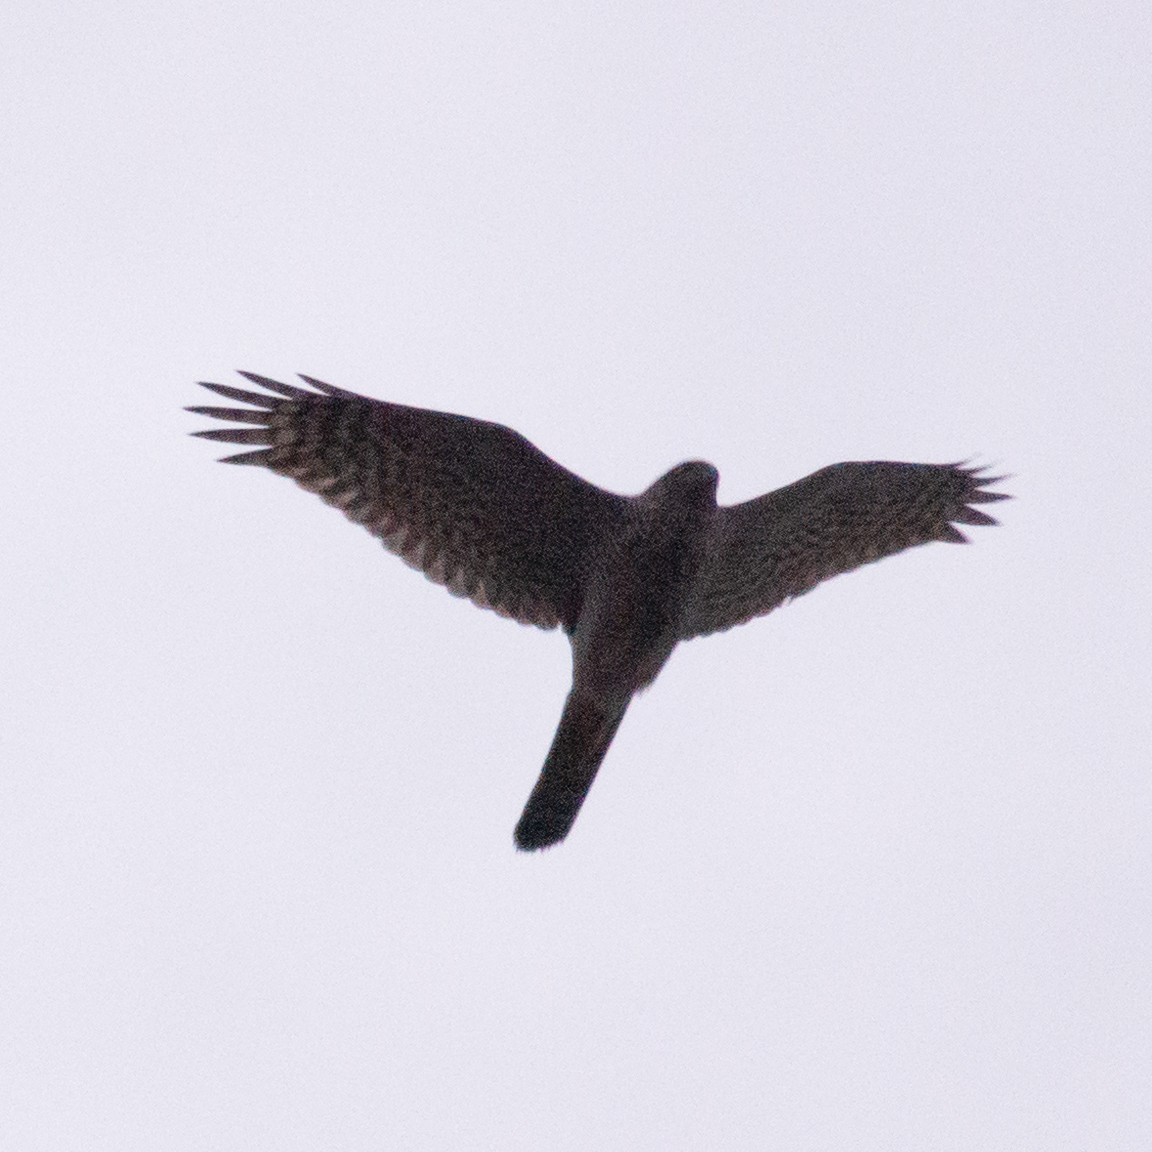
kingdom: Animalia
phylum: Chordata
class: Aves
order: Accipitriformes
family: Accipitridae
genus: Accipiter
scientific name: Accipiter nisus
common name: Eurasian sparrowhawk
